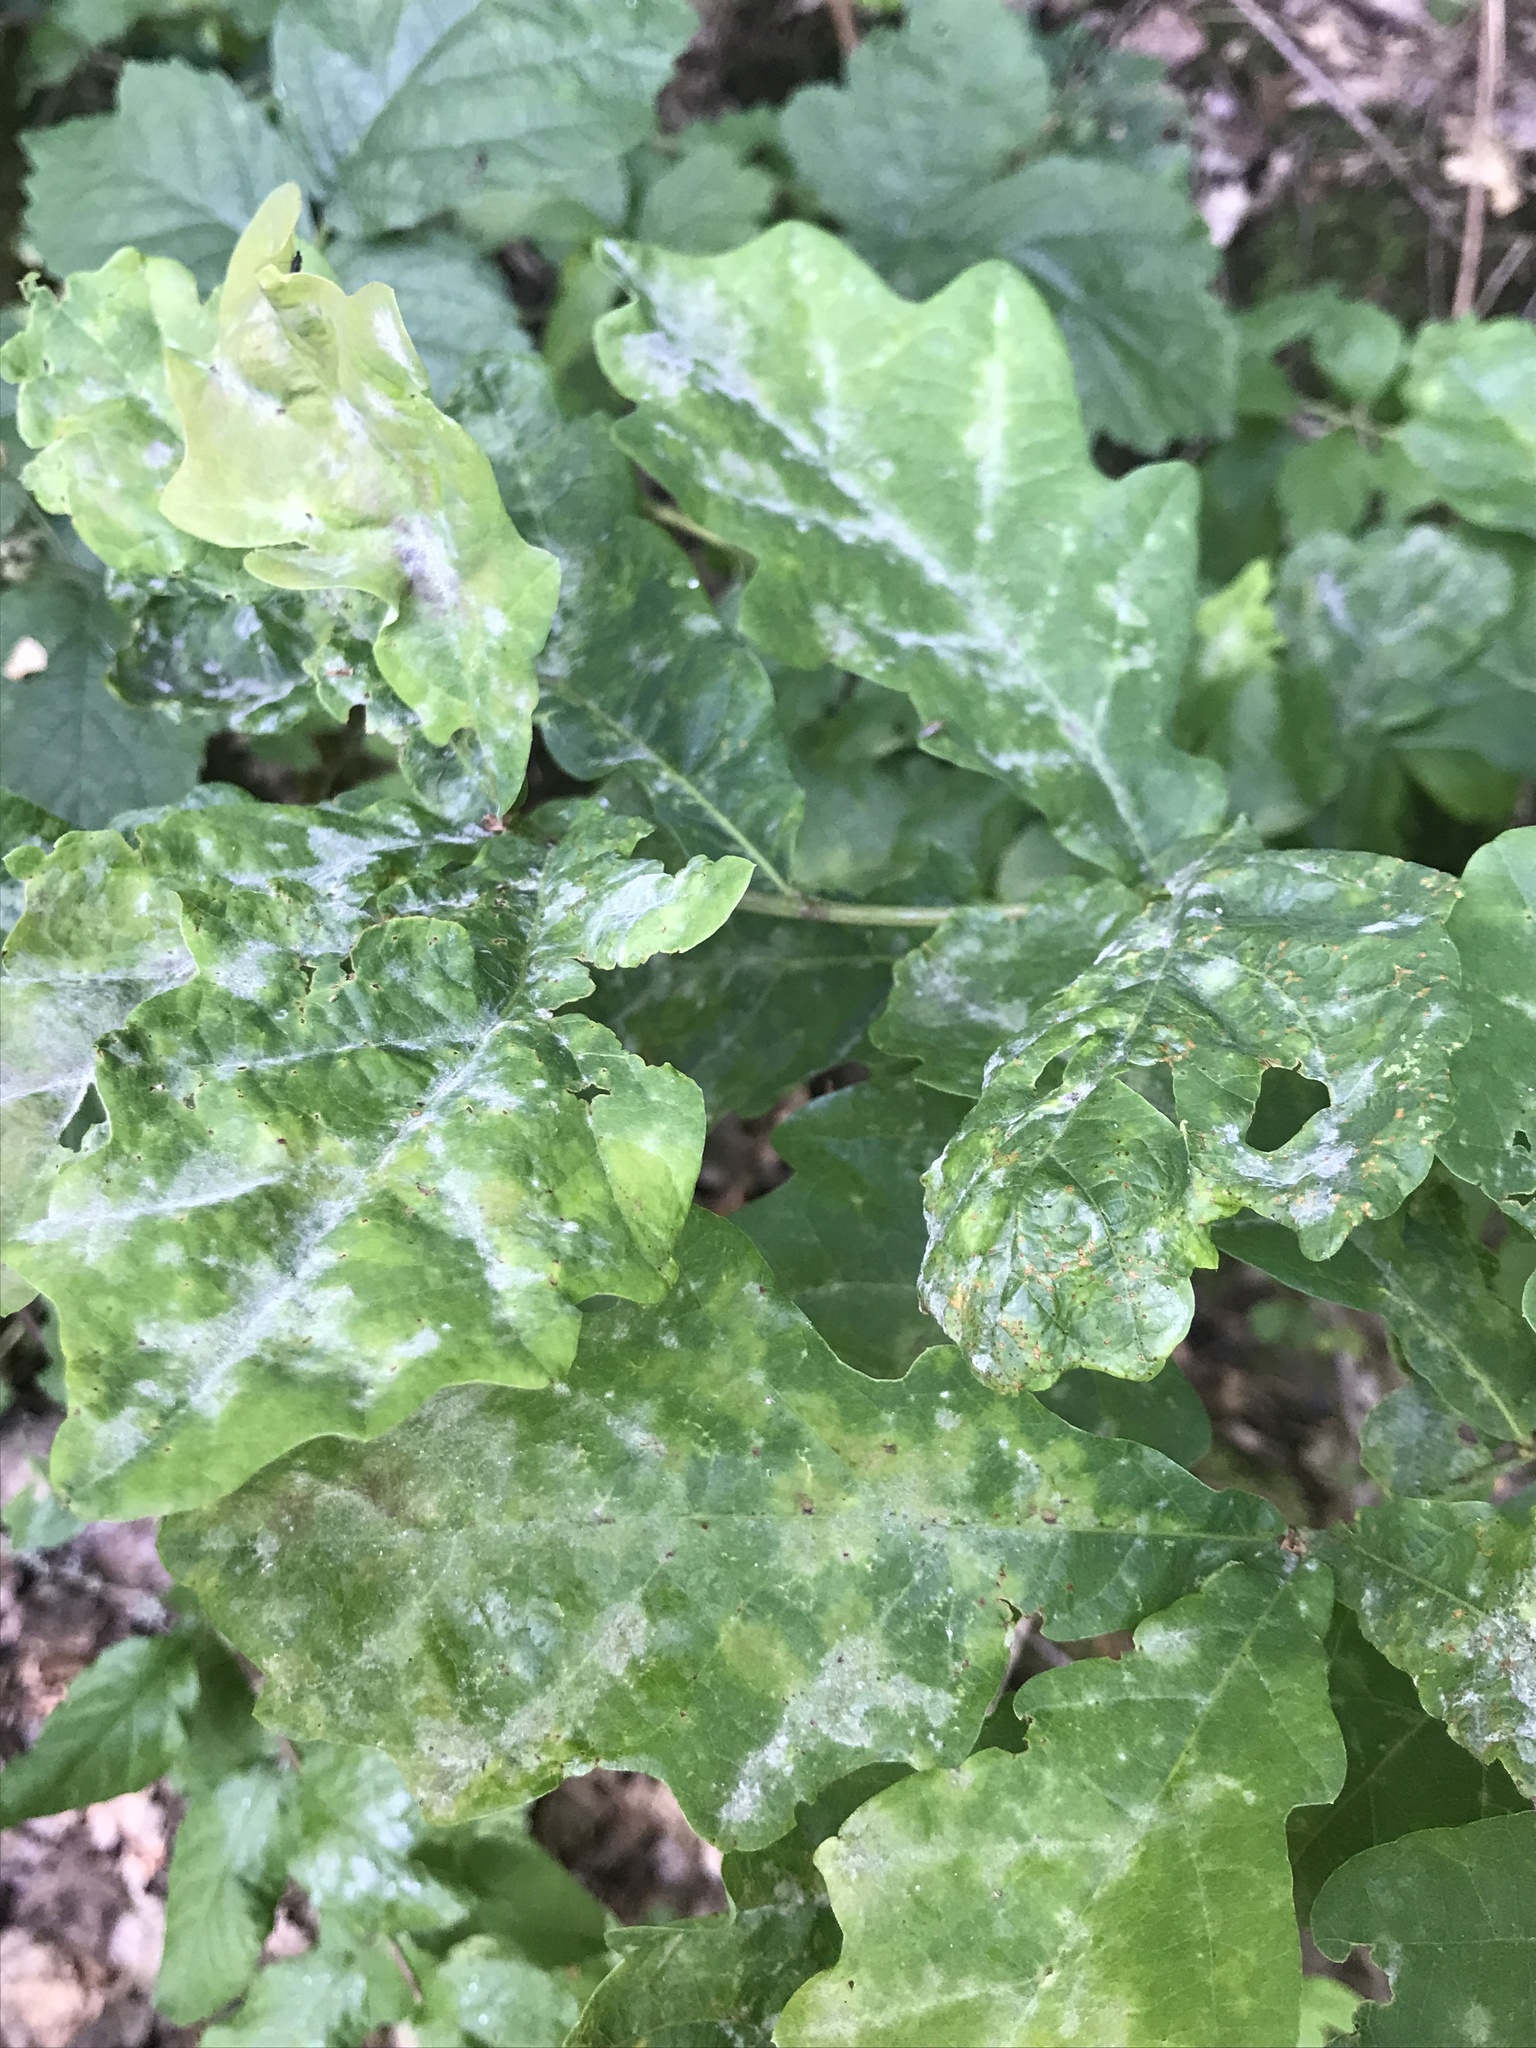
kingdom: Fungi
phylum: Ascomycota
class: Leotiomycetes
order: Helotiales
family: Erysiphaceae
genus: Erysiphe
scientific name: Erysiphe
